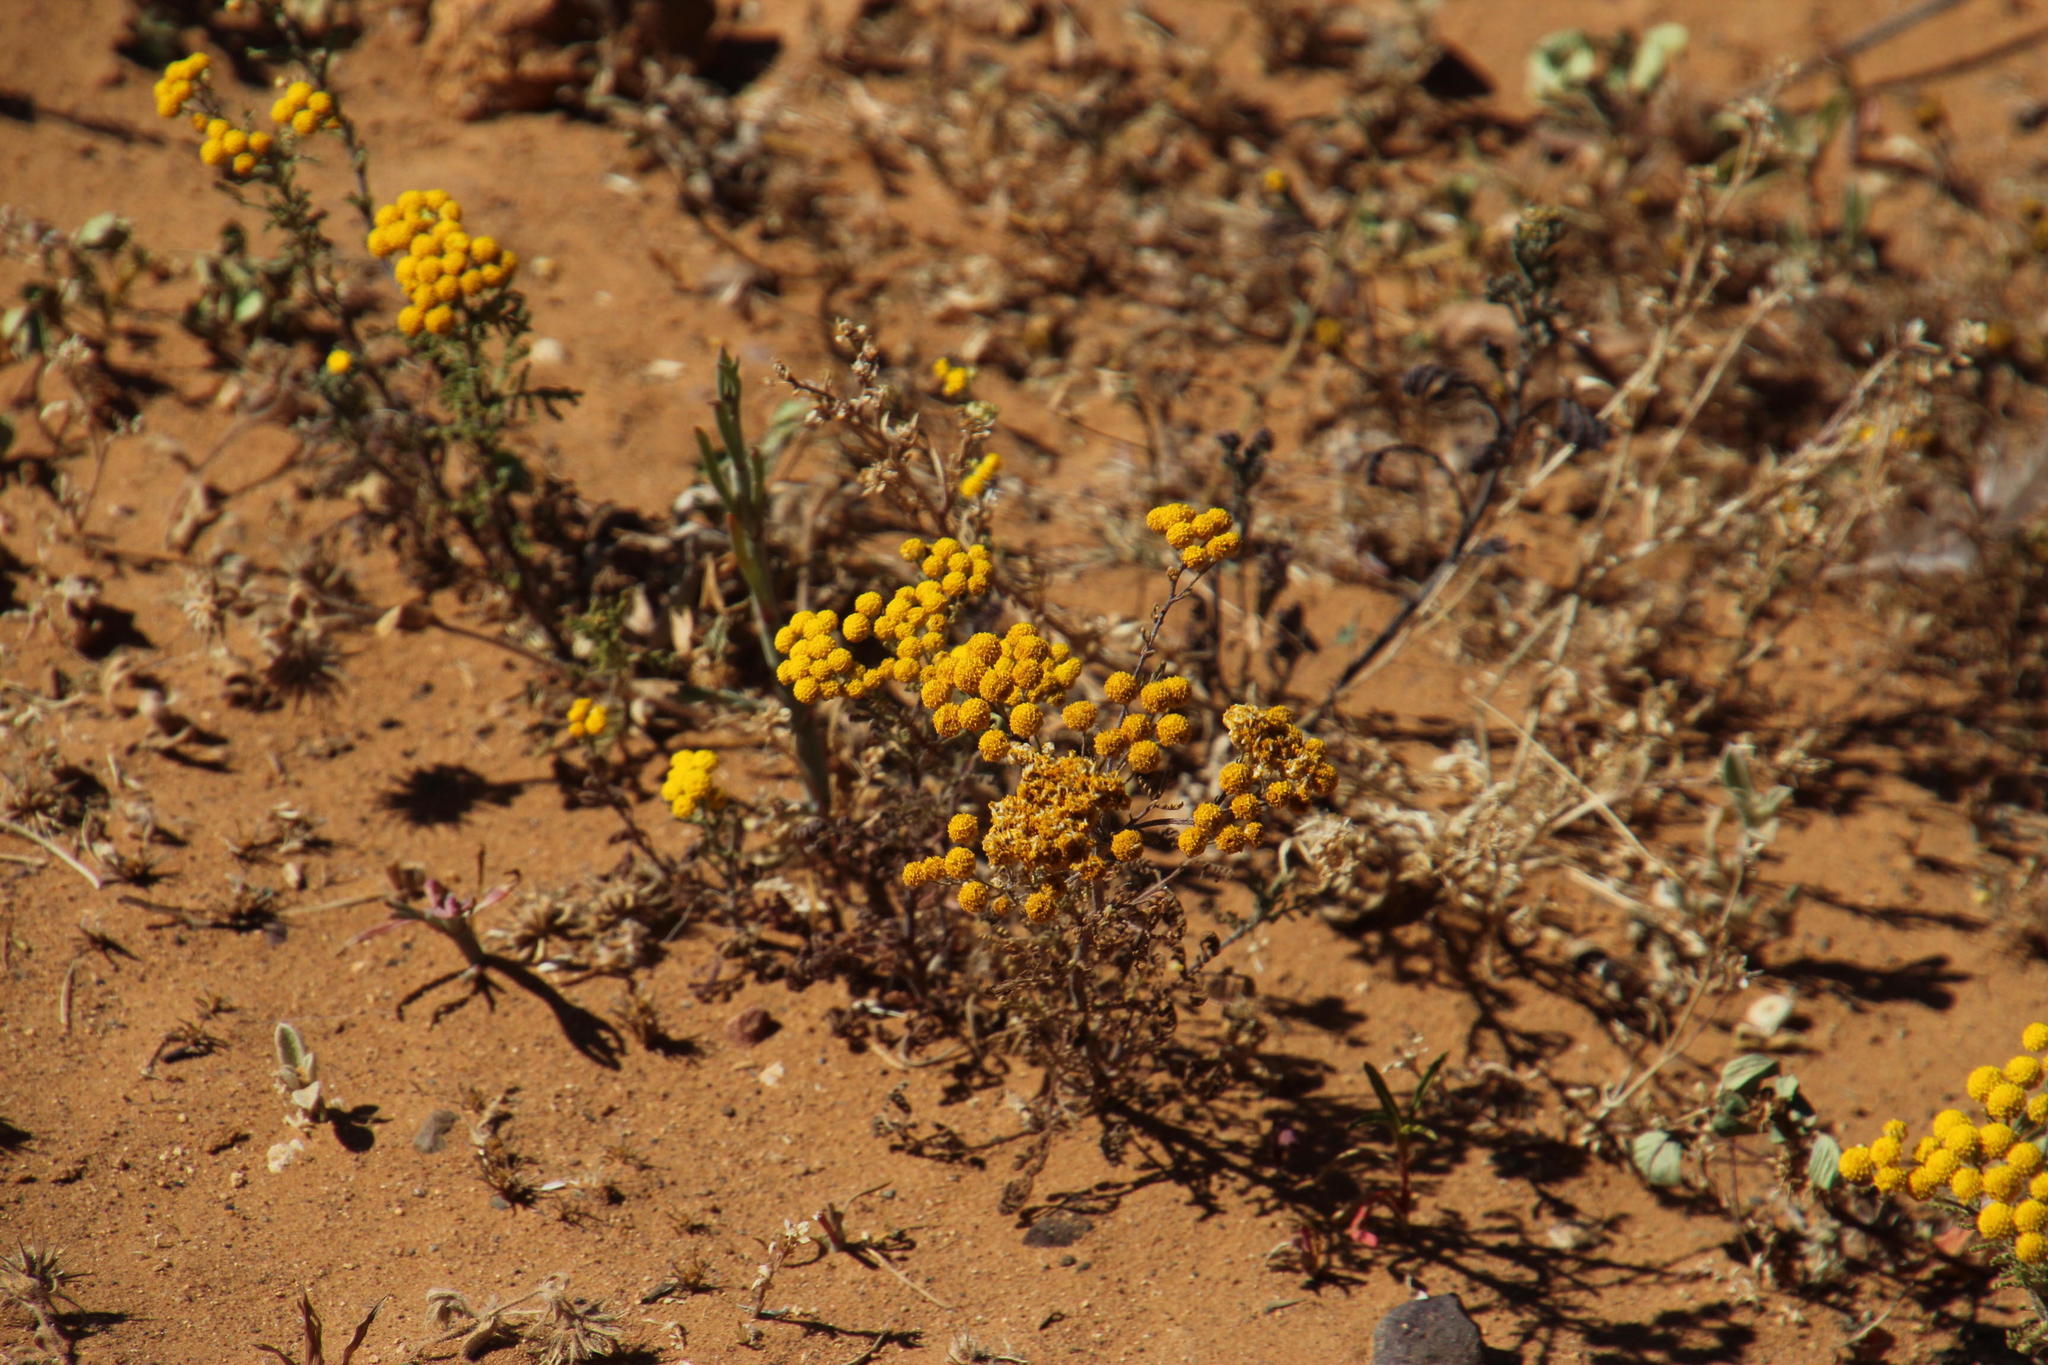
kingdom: Plantae
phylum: Tracheophyta
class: Magnoliopsida
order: Asterales
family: Asteraceae
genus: Oncosiphon
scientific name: Oncosiphon suffruticosus
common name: Shrubby mayweed
